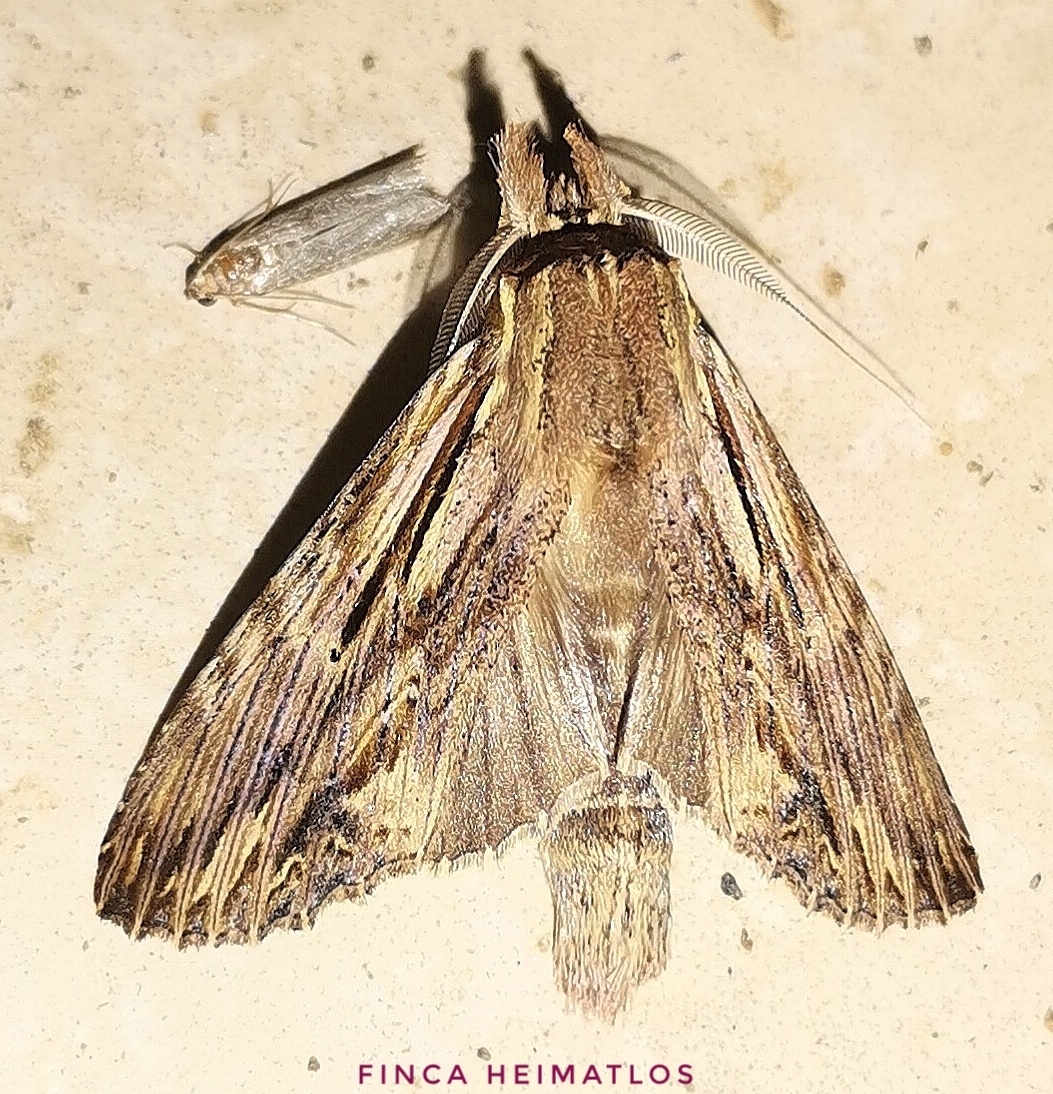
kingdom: Animalia
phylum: Arthropoda
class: Insecta
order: Lepidoptera
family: Notodontidae
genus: Xylodonta
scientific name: Xylodonta andrewrusselli
